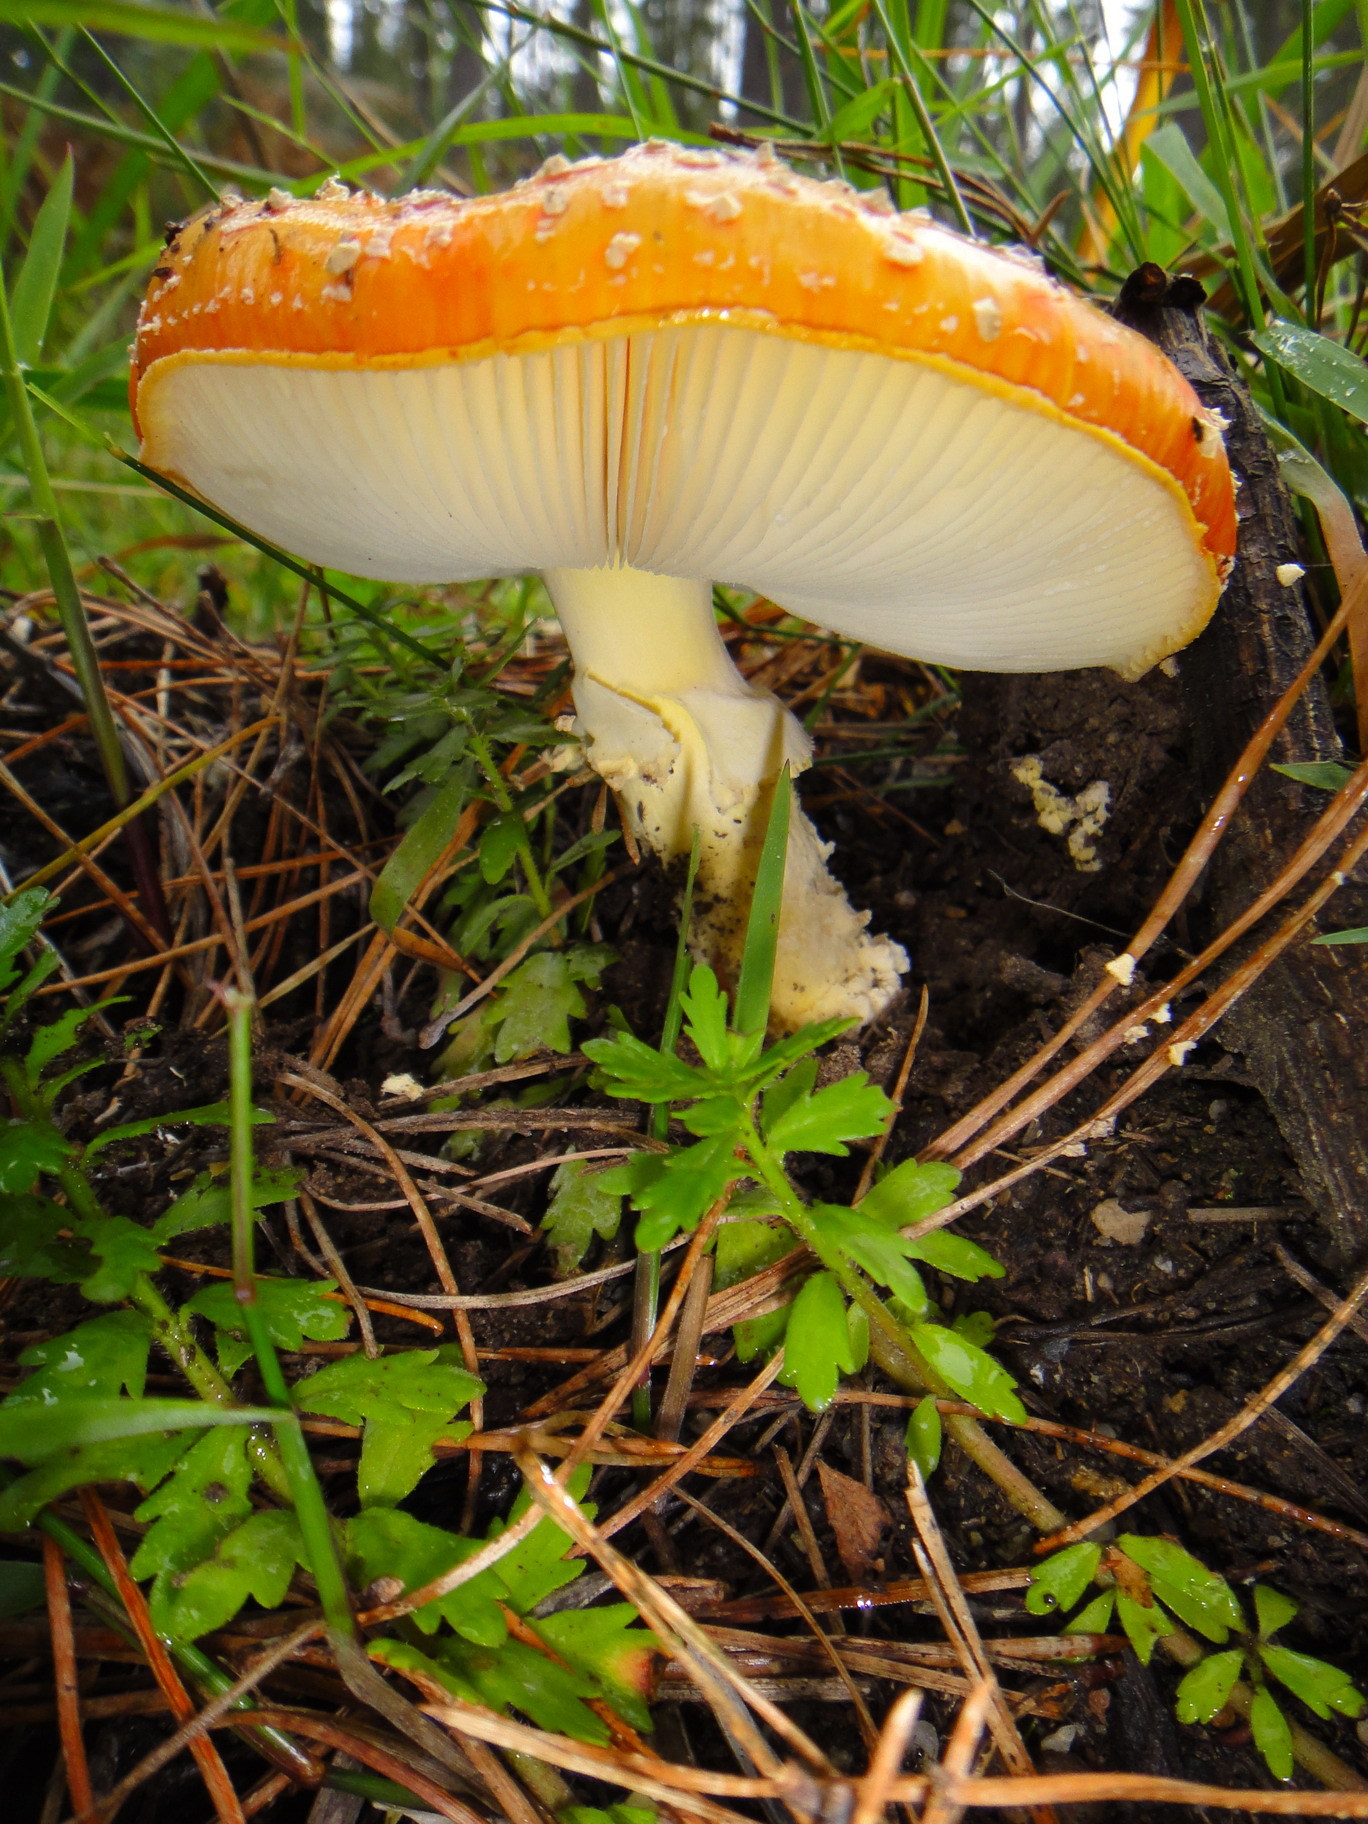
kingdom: Fungi
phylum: Basidiomycota
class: Agaricomycetes
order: Agaricales
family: Amanitaceae
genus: Amanita
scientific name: Amanita muscaria
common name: Fly agaric
